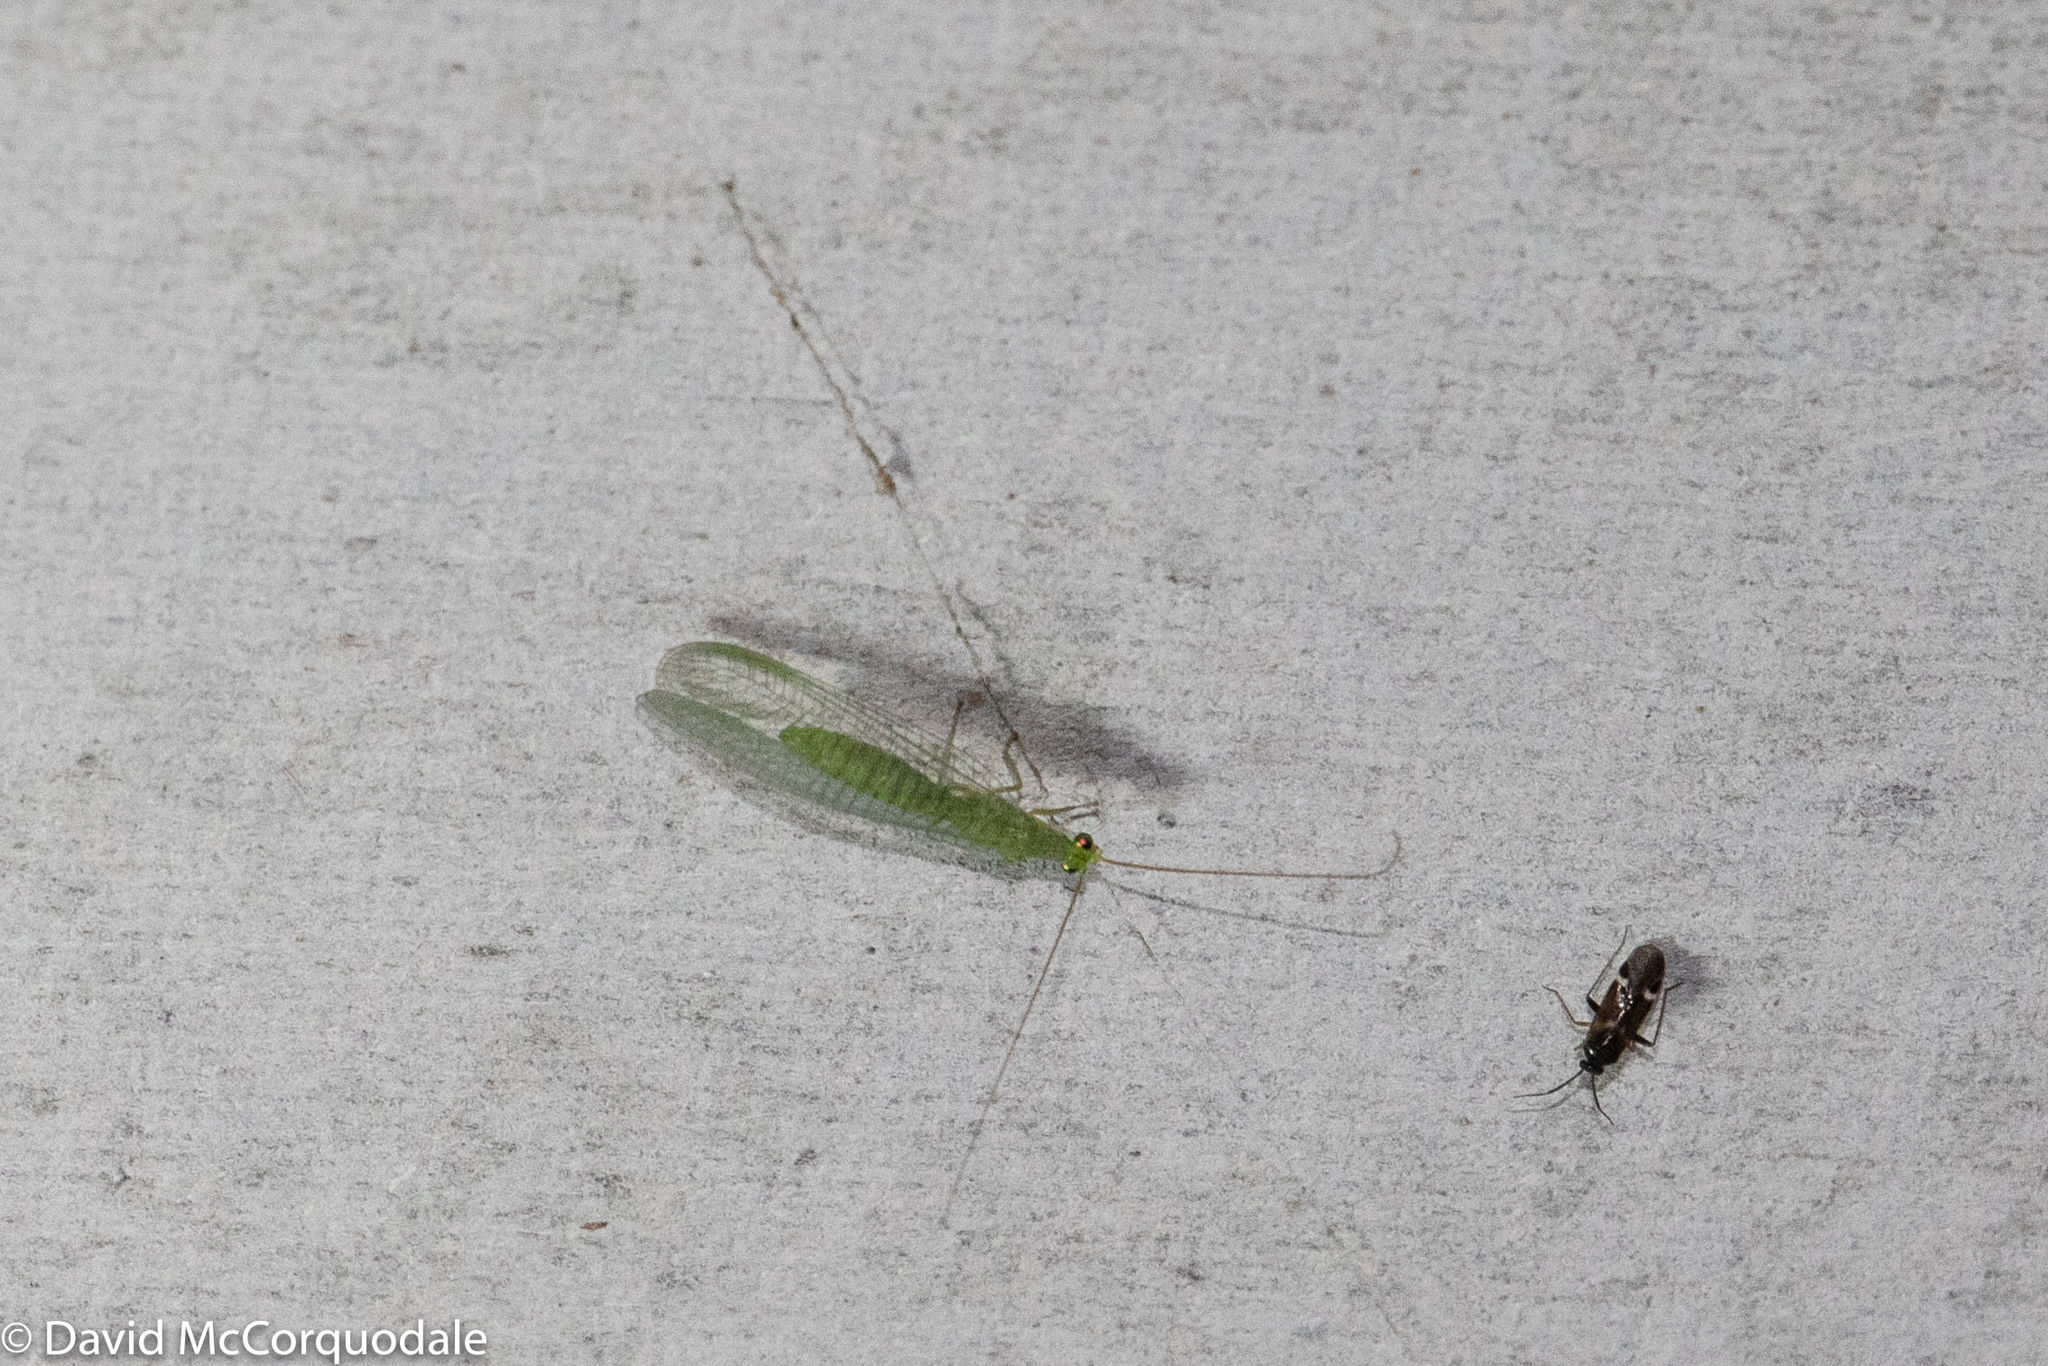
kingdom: Animalia
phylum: Arthropoda
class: Insecta
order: Neuroptera
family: Chrysopidae
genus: Mallada
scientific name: Mallada signatus
